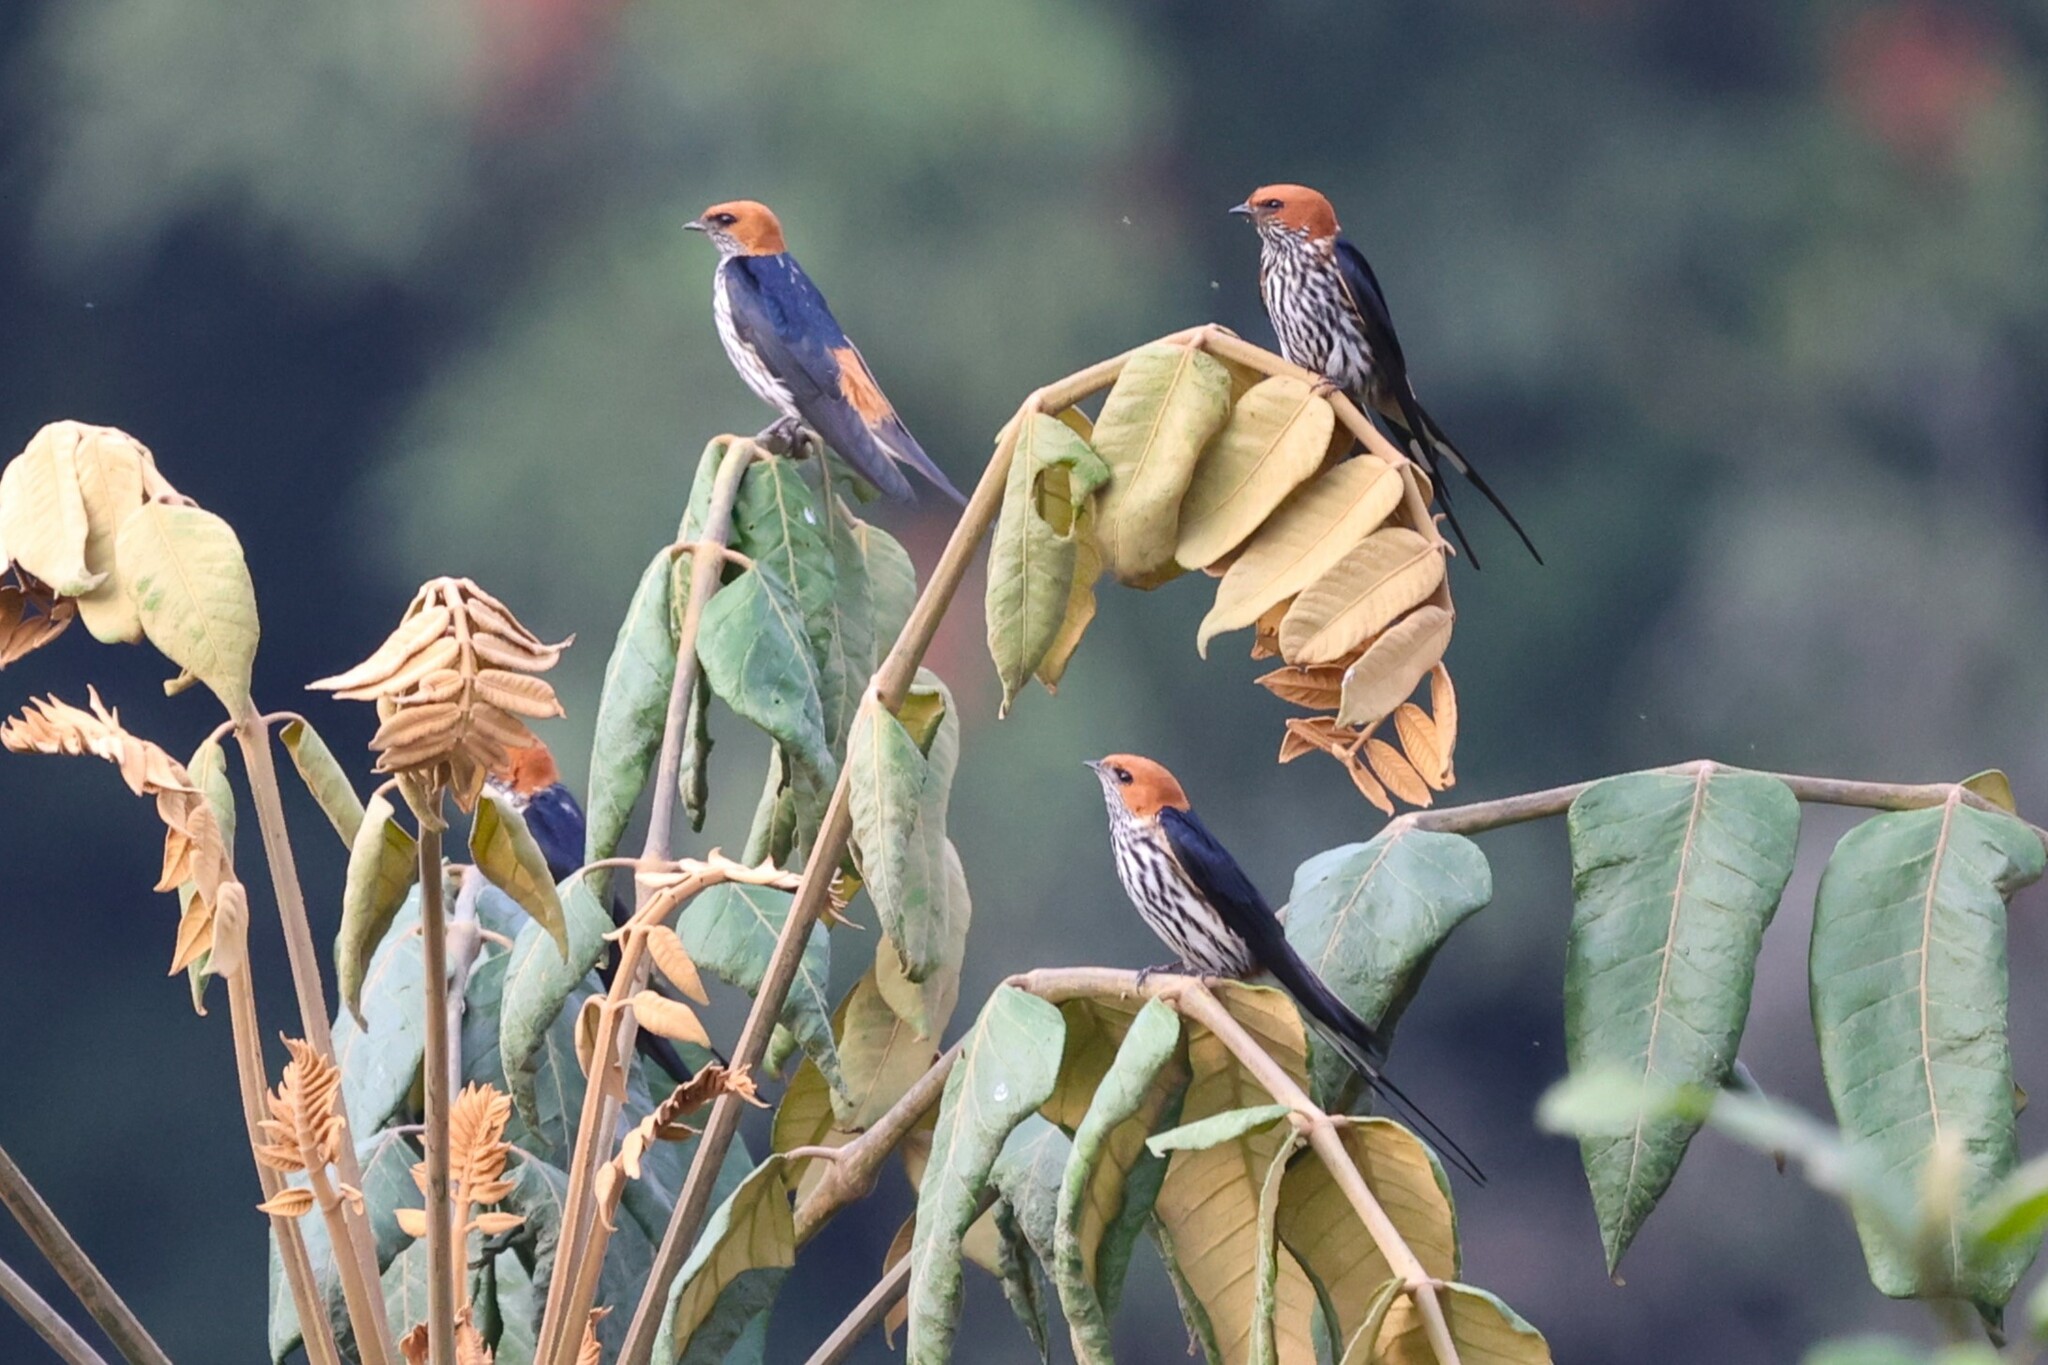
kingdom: Animalia
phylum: Chordata
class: Aves
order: Passeriformes
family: Hirundinidae
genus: Cecropis
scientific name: Cecropis abyssinica
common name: Lesser striped-swallow
